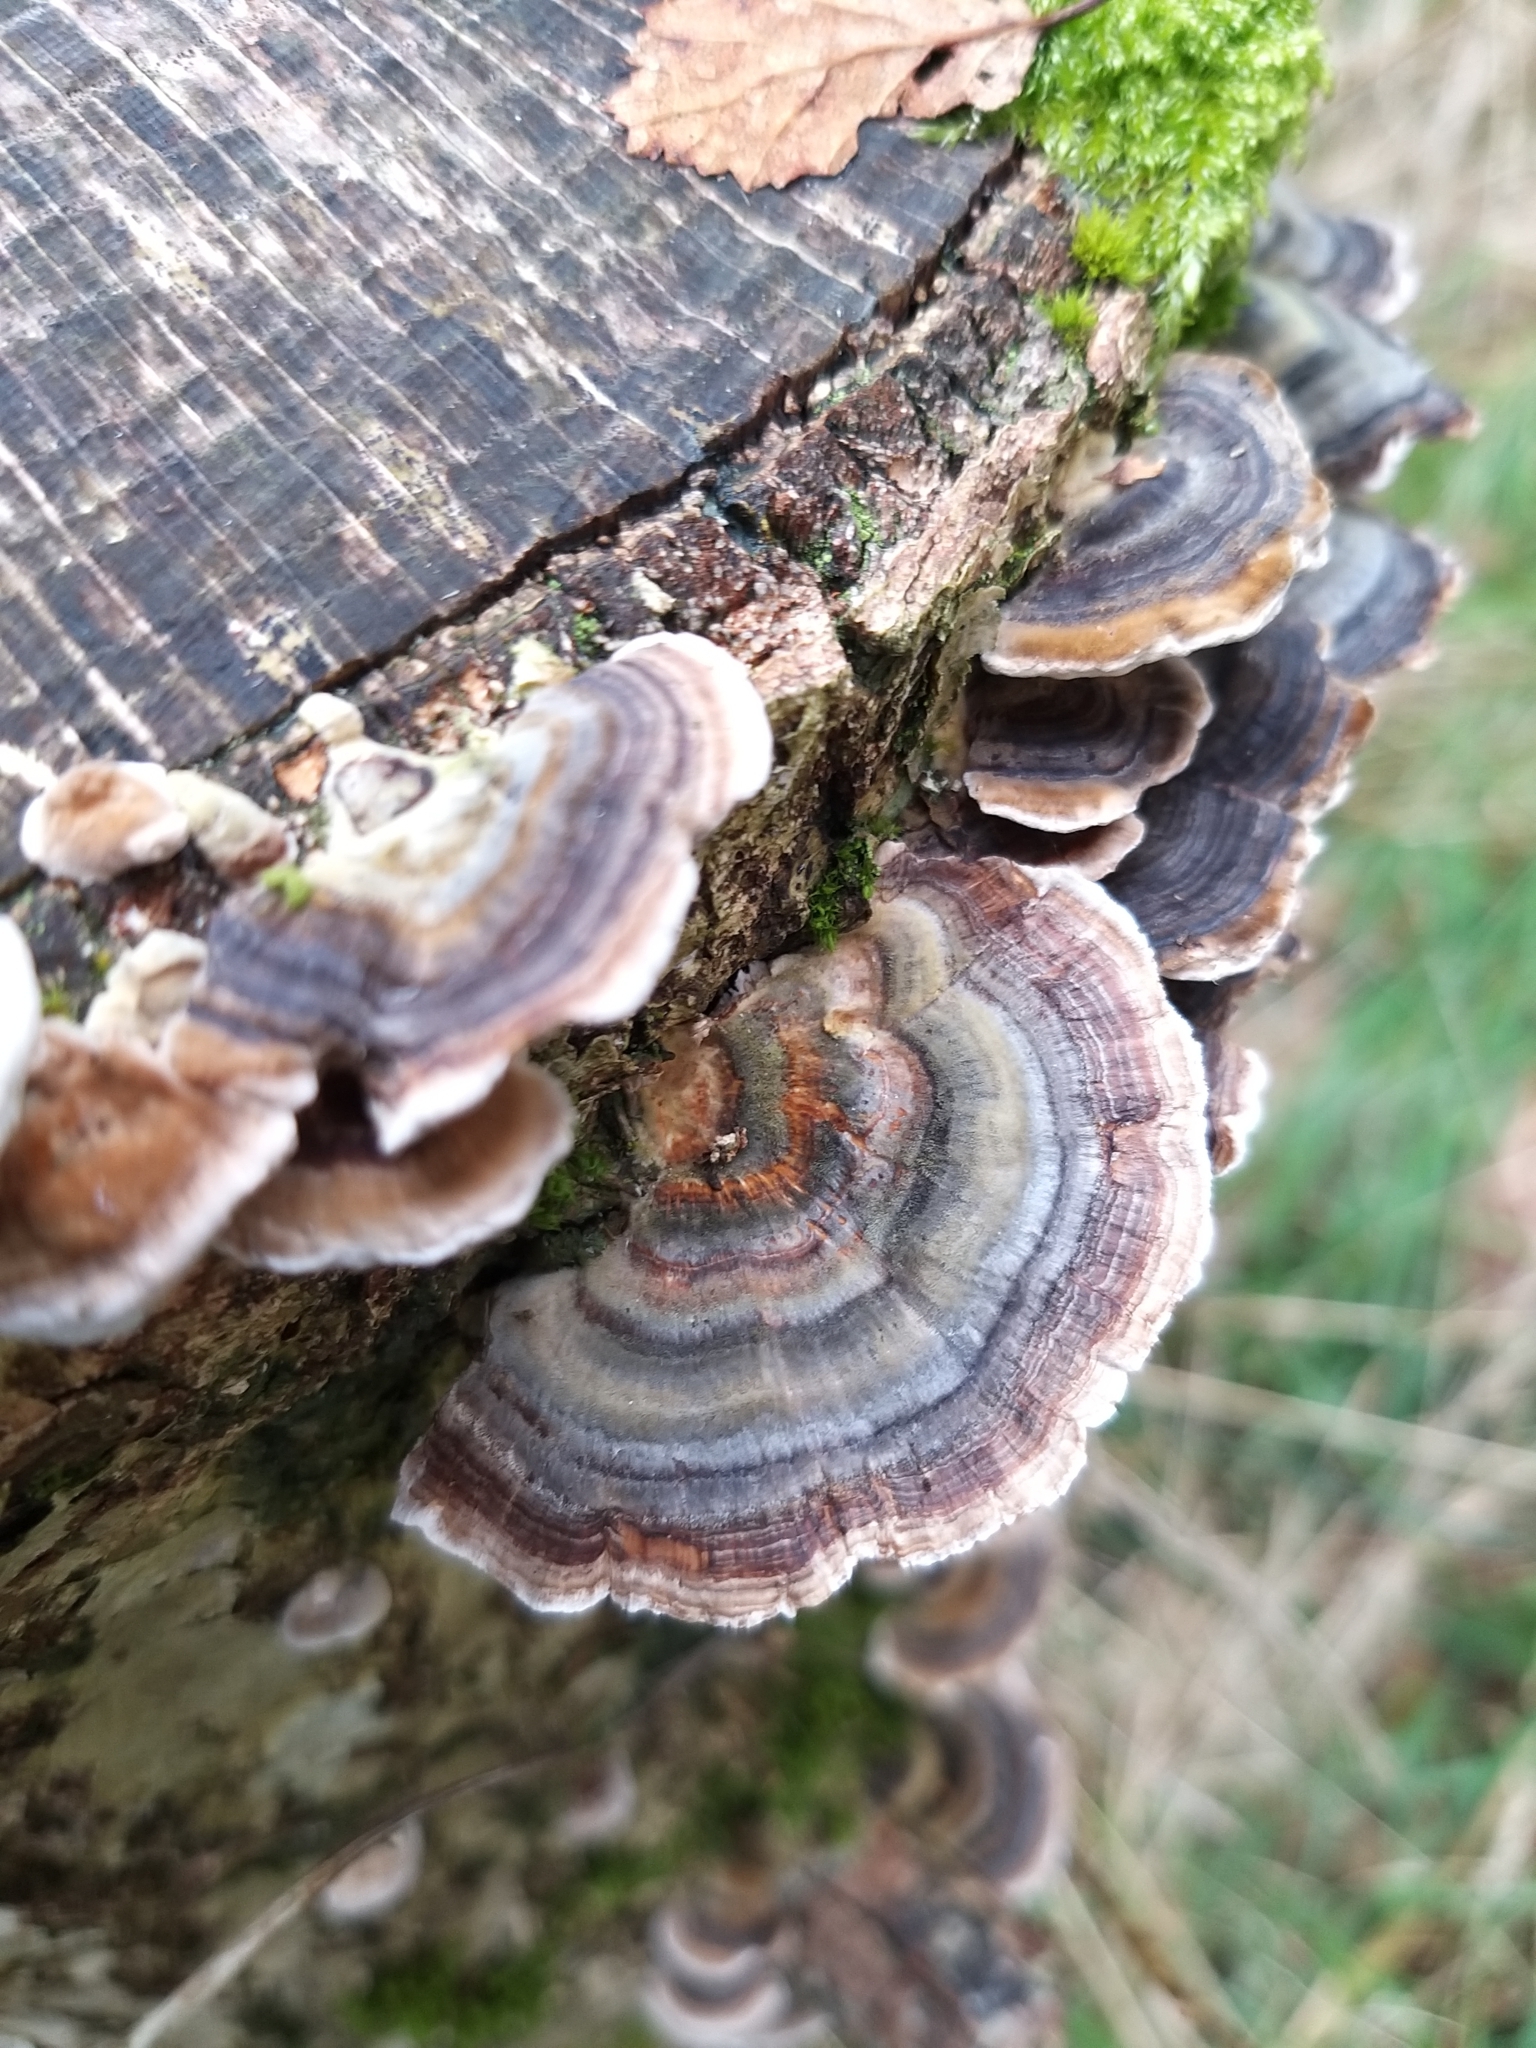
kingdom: Fungi
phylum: Basidiomycota
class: Agaricomycetes
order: Polyporales
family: Polyporaceae
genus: Trametes
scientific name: Trametes versicolor
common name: Turkeytail
